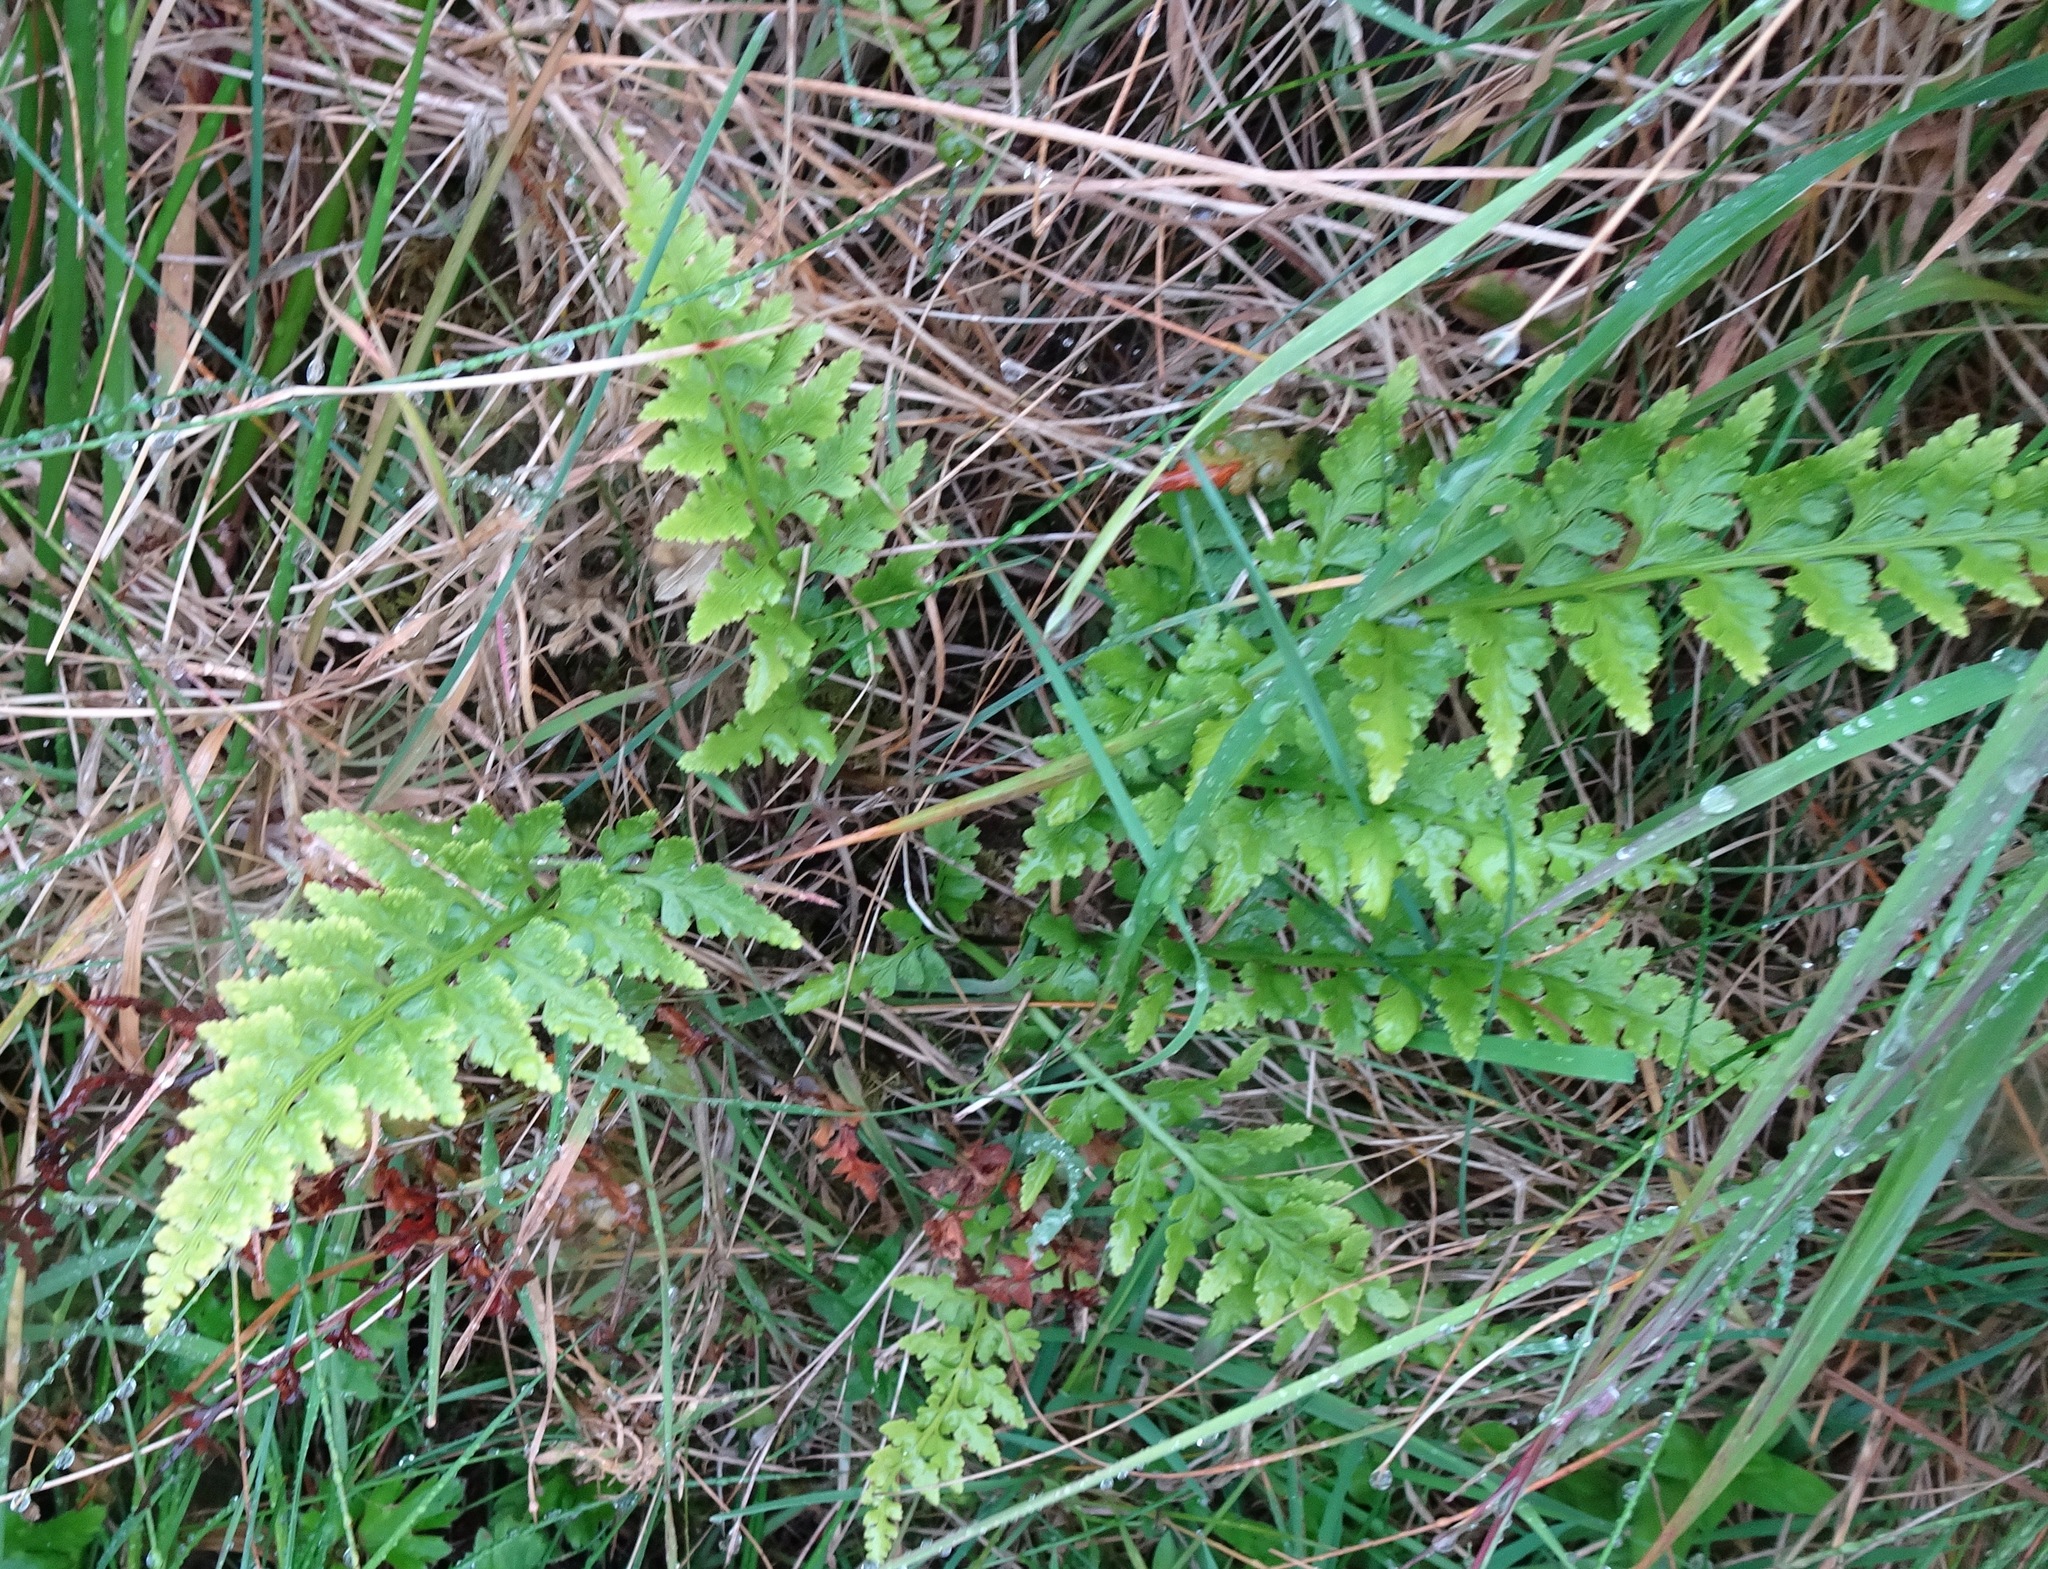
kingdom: Plantae
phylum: Tracheophyta
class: Polypodiopsida
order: Polypodiales
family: Aspleniaceae
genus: Asplenium
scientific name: Asplenium adiantum-nigrum
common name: Black spleenwort
